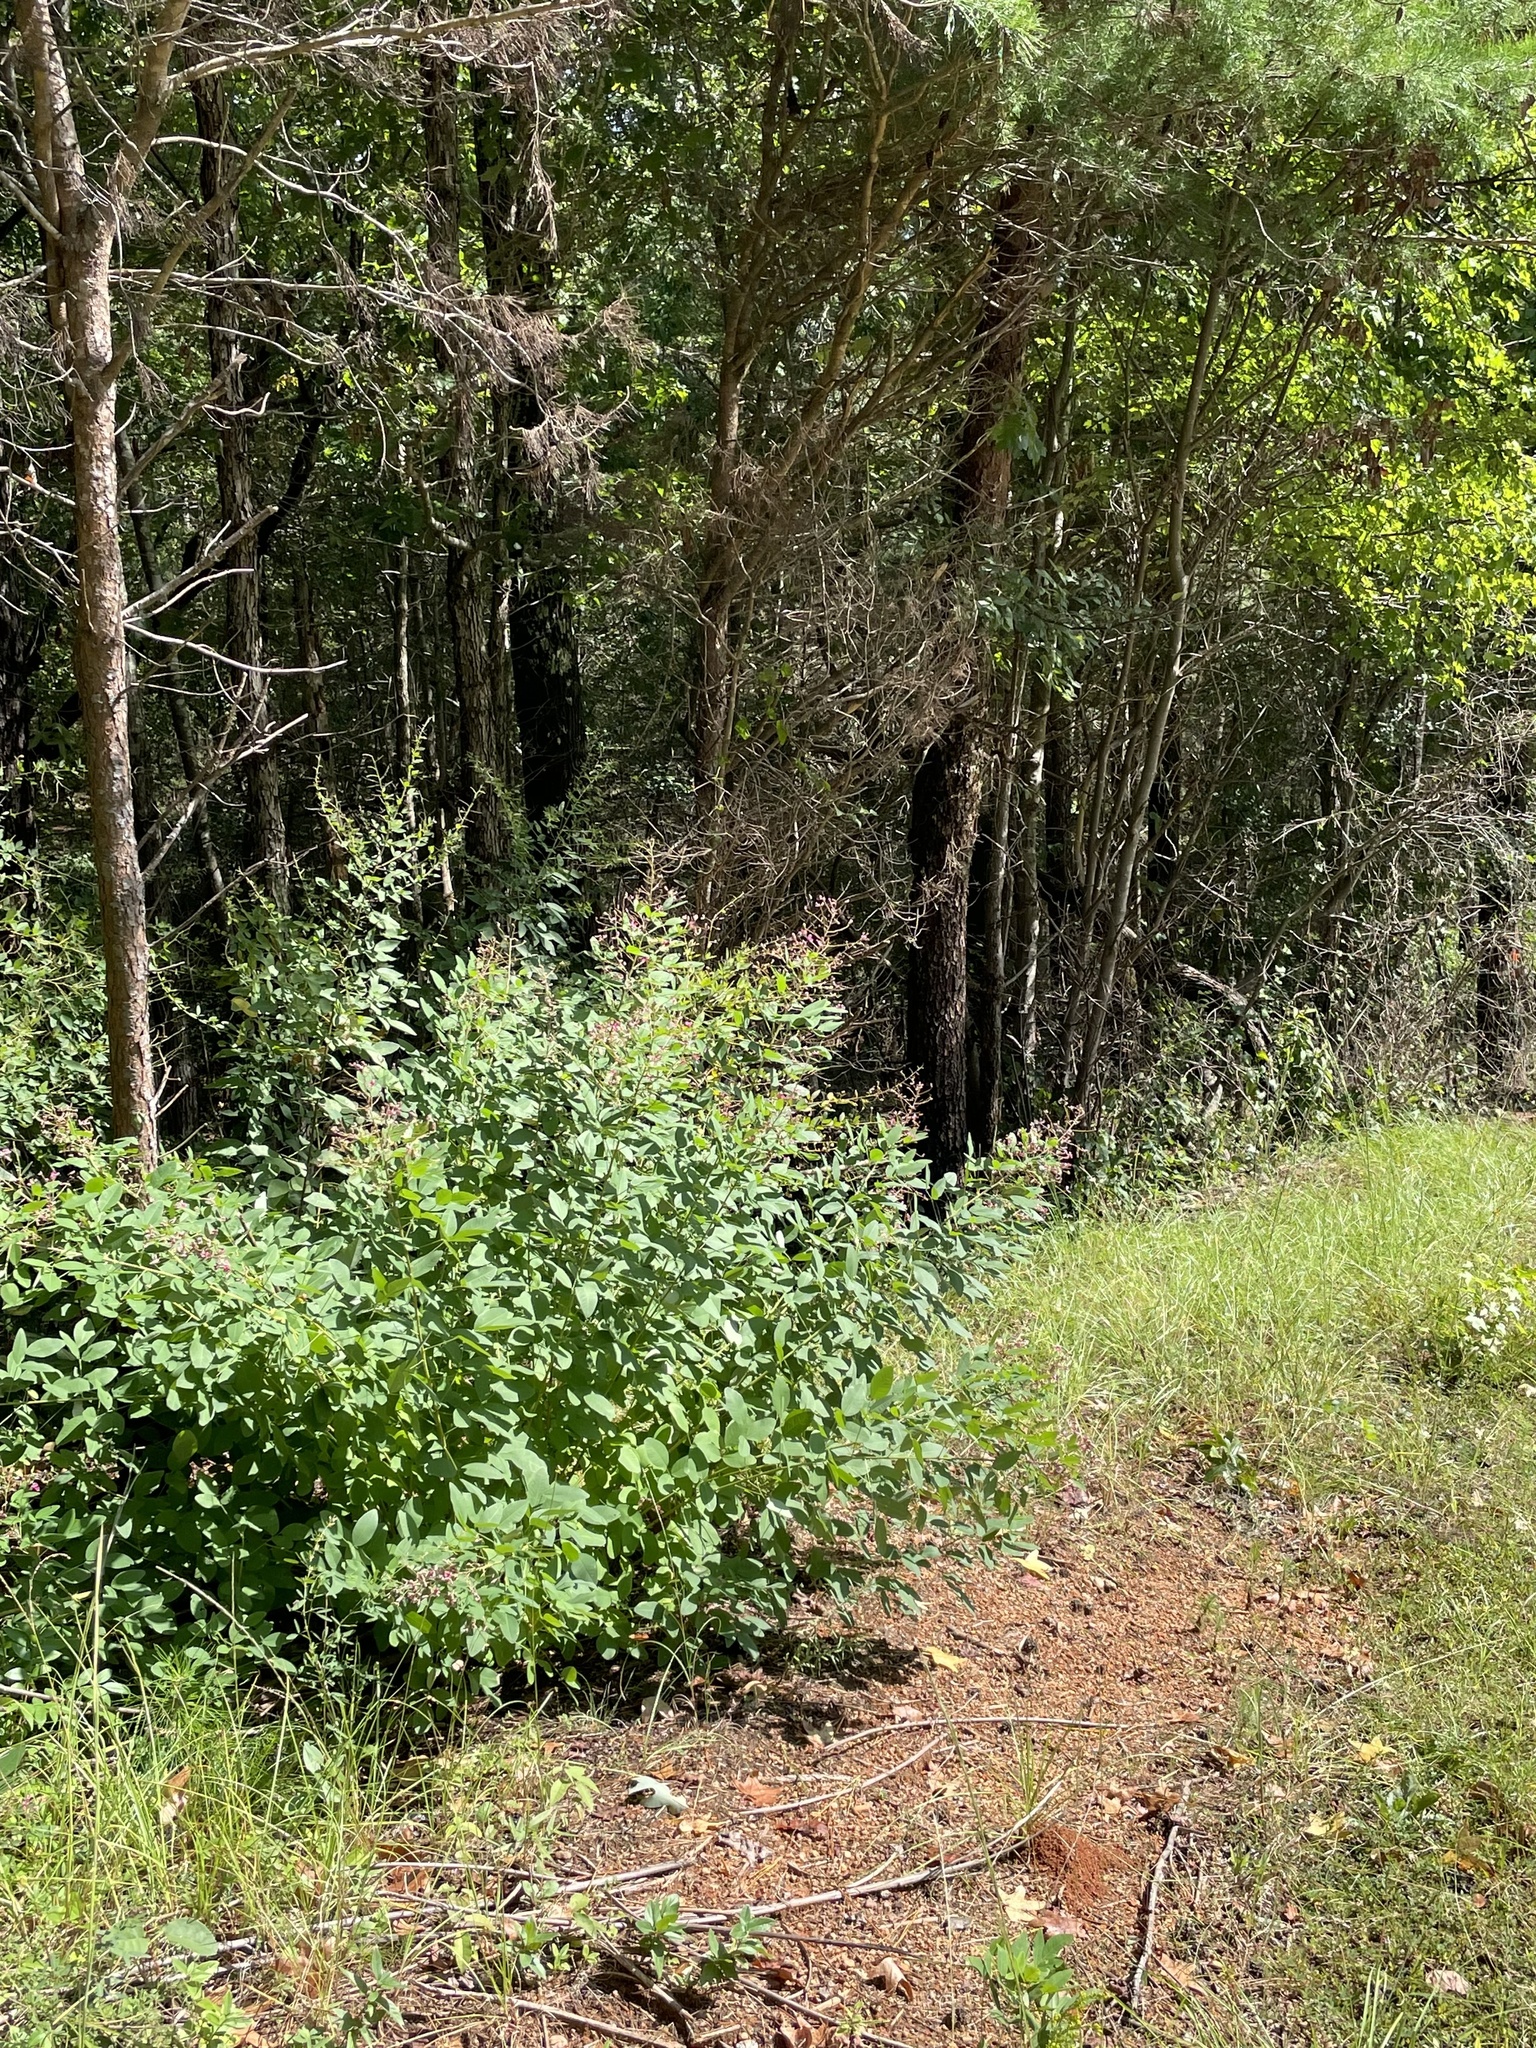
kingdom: Plantae
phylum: Tracheophyta
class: Magnoliopsida
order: Fabales
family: Fabaceae
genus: Lespedeza
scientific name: Lespedeza bicolor
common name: Shrub lespedeza
